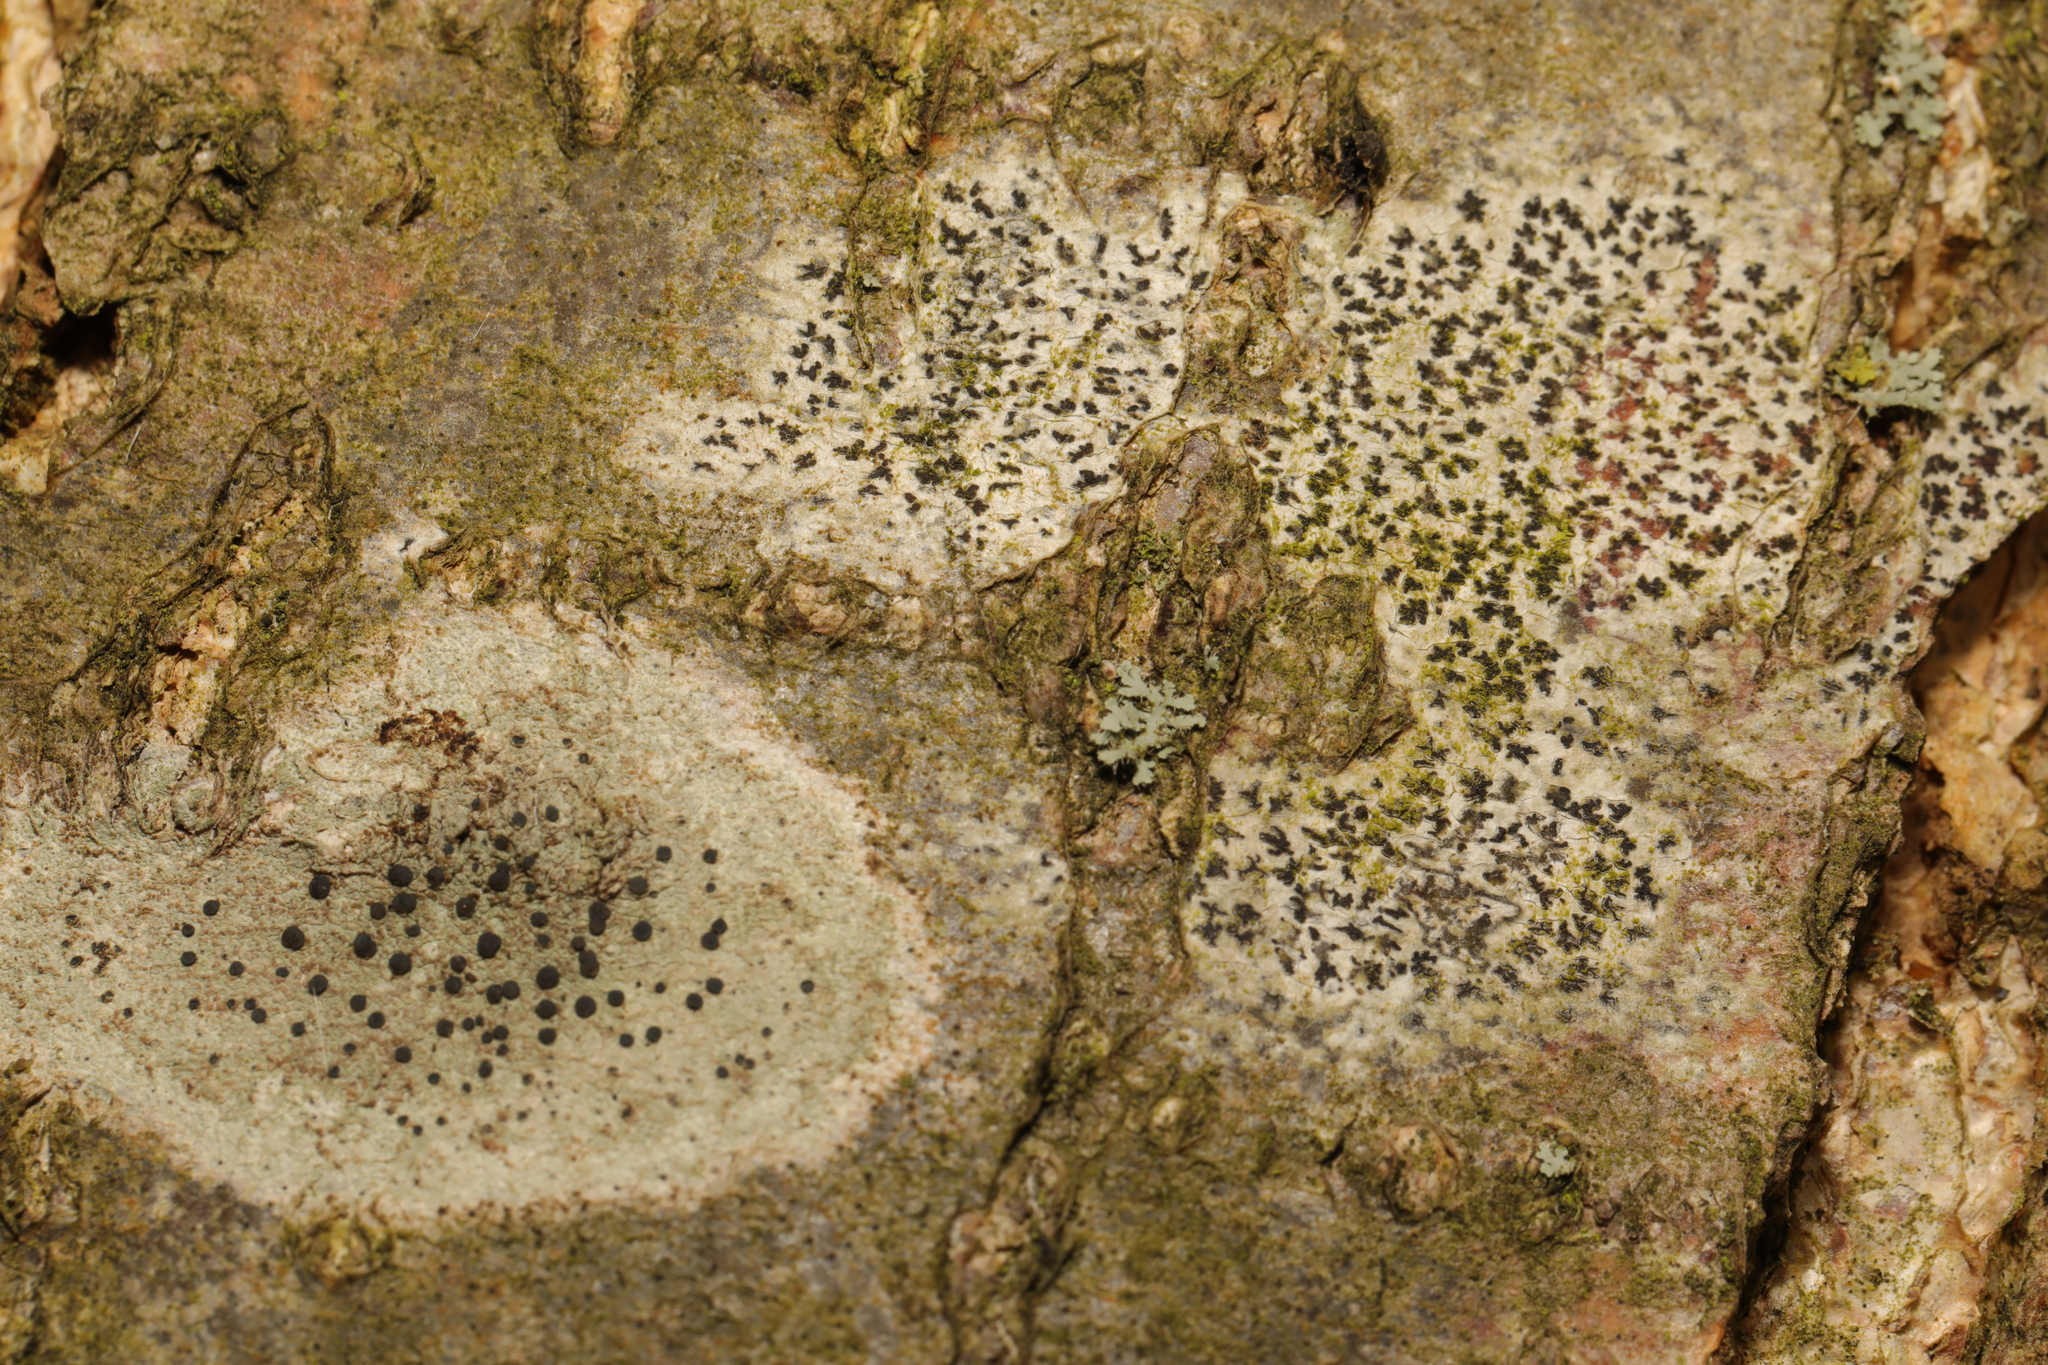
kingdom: Fungi
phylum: Ascomycota
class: Arthoniomycetes
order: Arthoniales
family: Arthoniaceae
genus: Arthonia
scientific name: Arthonia radiata
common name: Asterisk lichen
